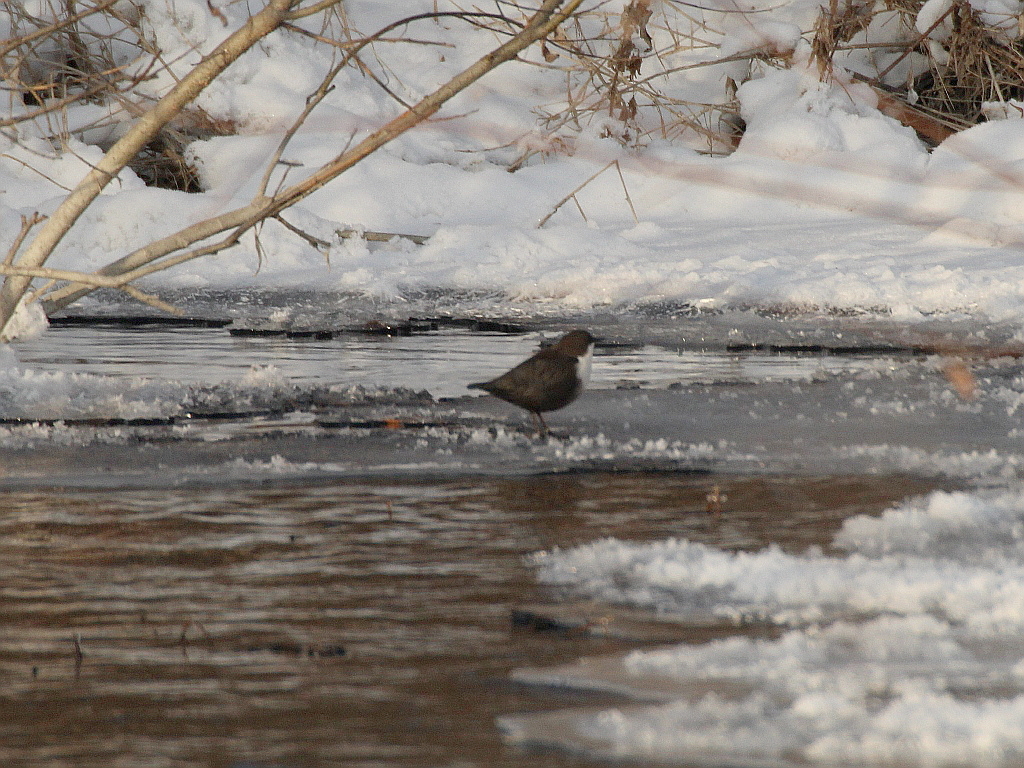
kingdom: Animalia
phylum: Chordata
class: Aves
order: Passeriformes
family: Cinclidae
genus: Cinclus
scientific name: Cinclus cinclus
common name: White-throated dipper
